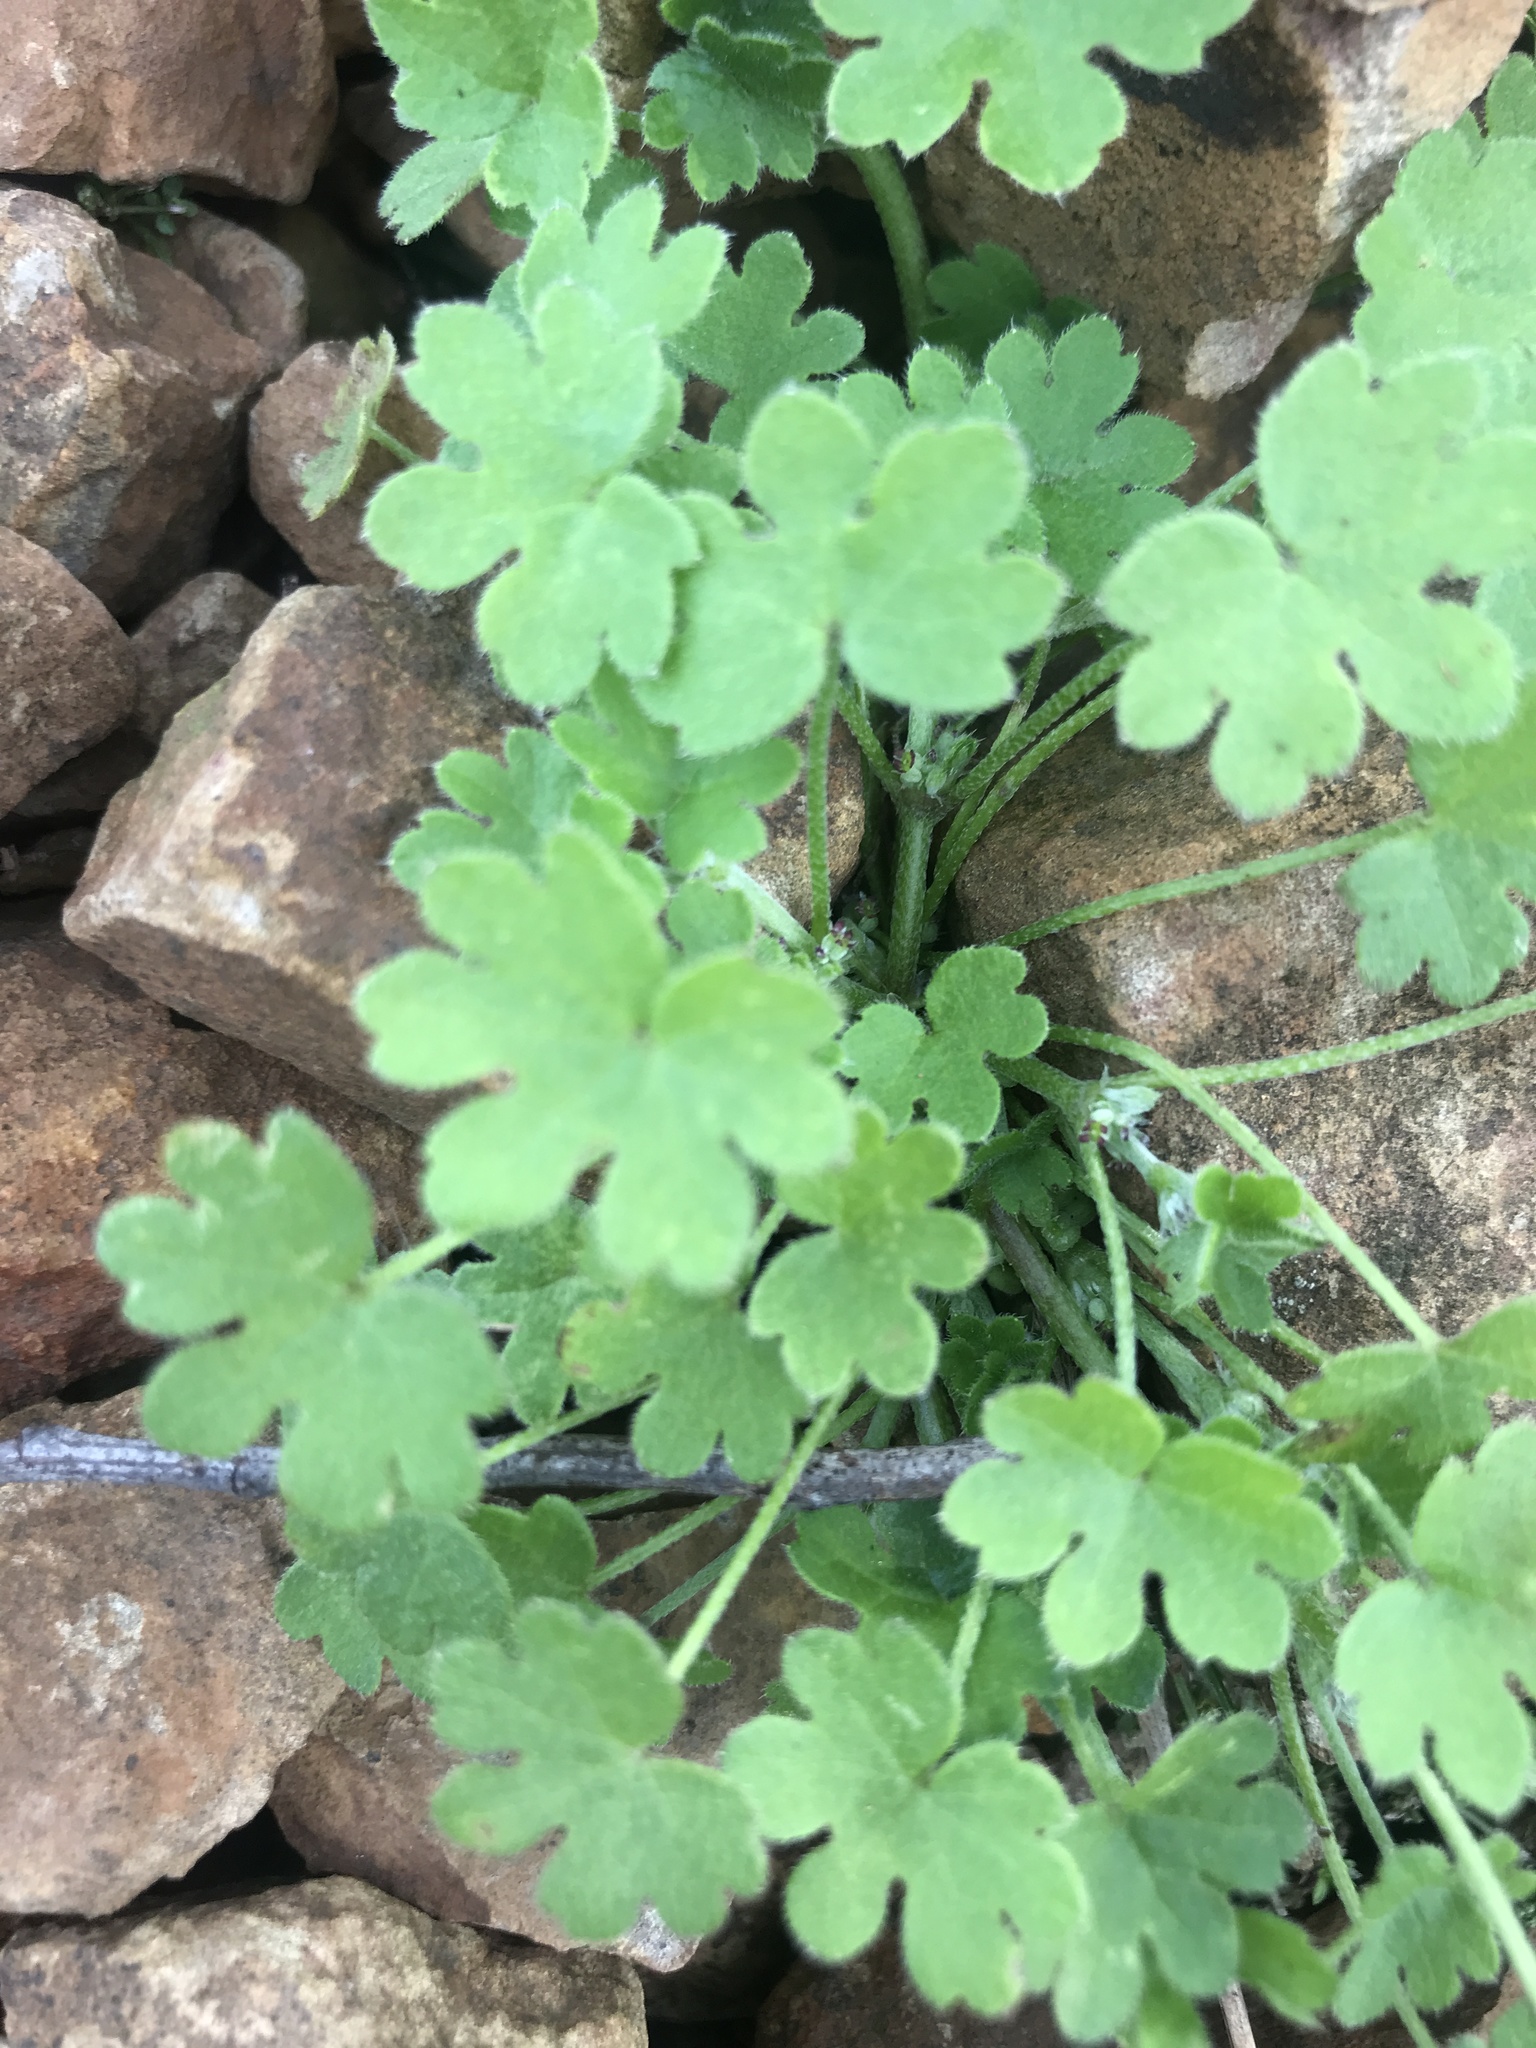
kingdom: Plantae
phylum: Tracheophyta
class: Magnoliopsida
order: Apiales
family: Apiaceae
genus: Bowlesia
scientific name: Bowlesia incana
